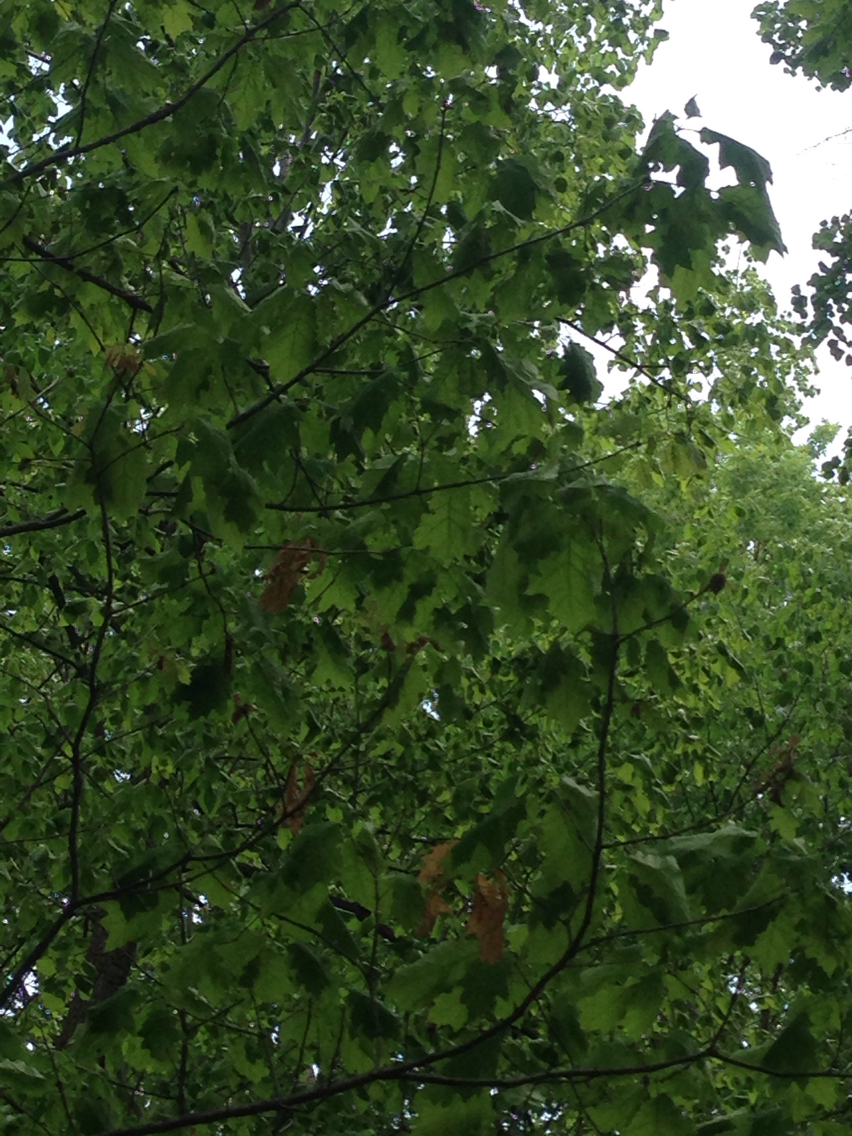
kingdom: Plantae
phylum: Tracheophyta
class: Magnoliopsida
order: Fagales
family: Fagaceae
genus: Quercus
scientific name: Quercus rubra
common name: Red oak
